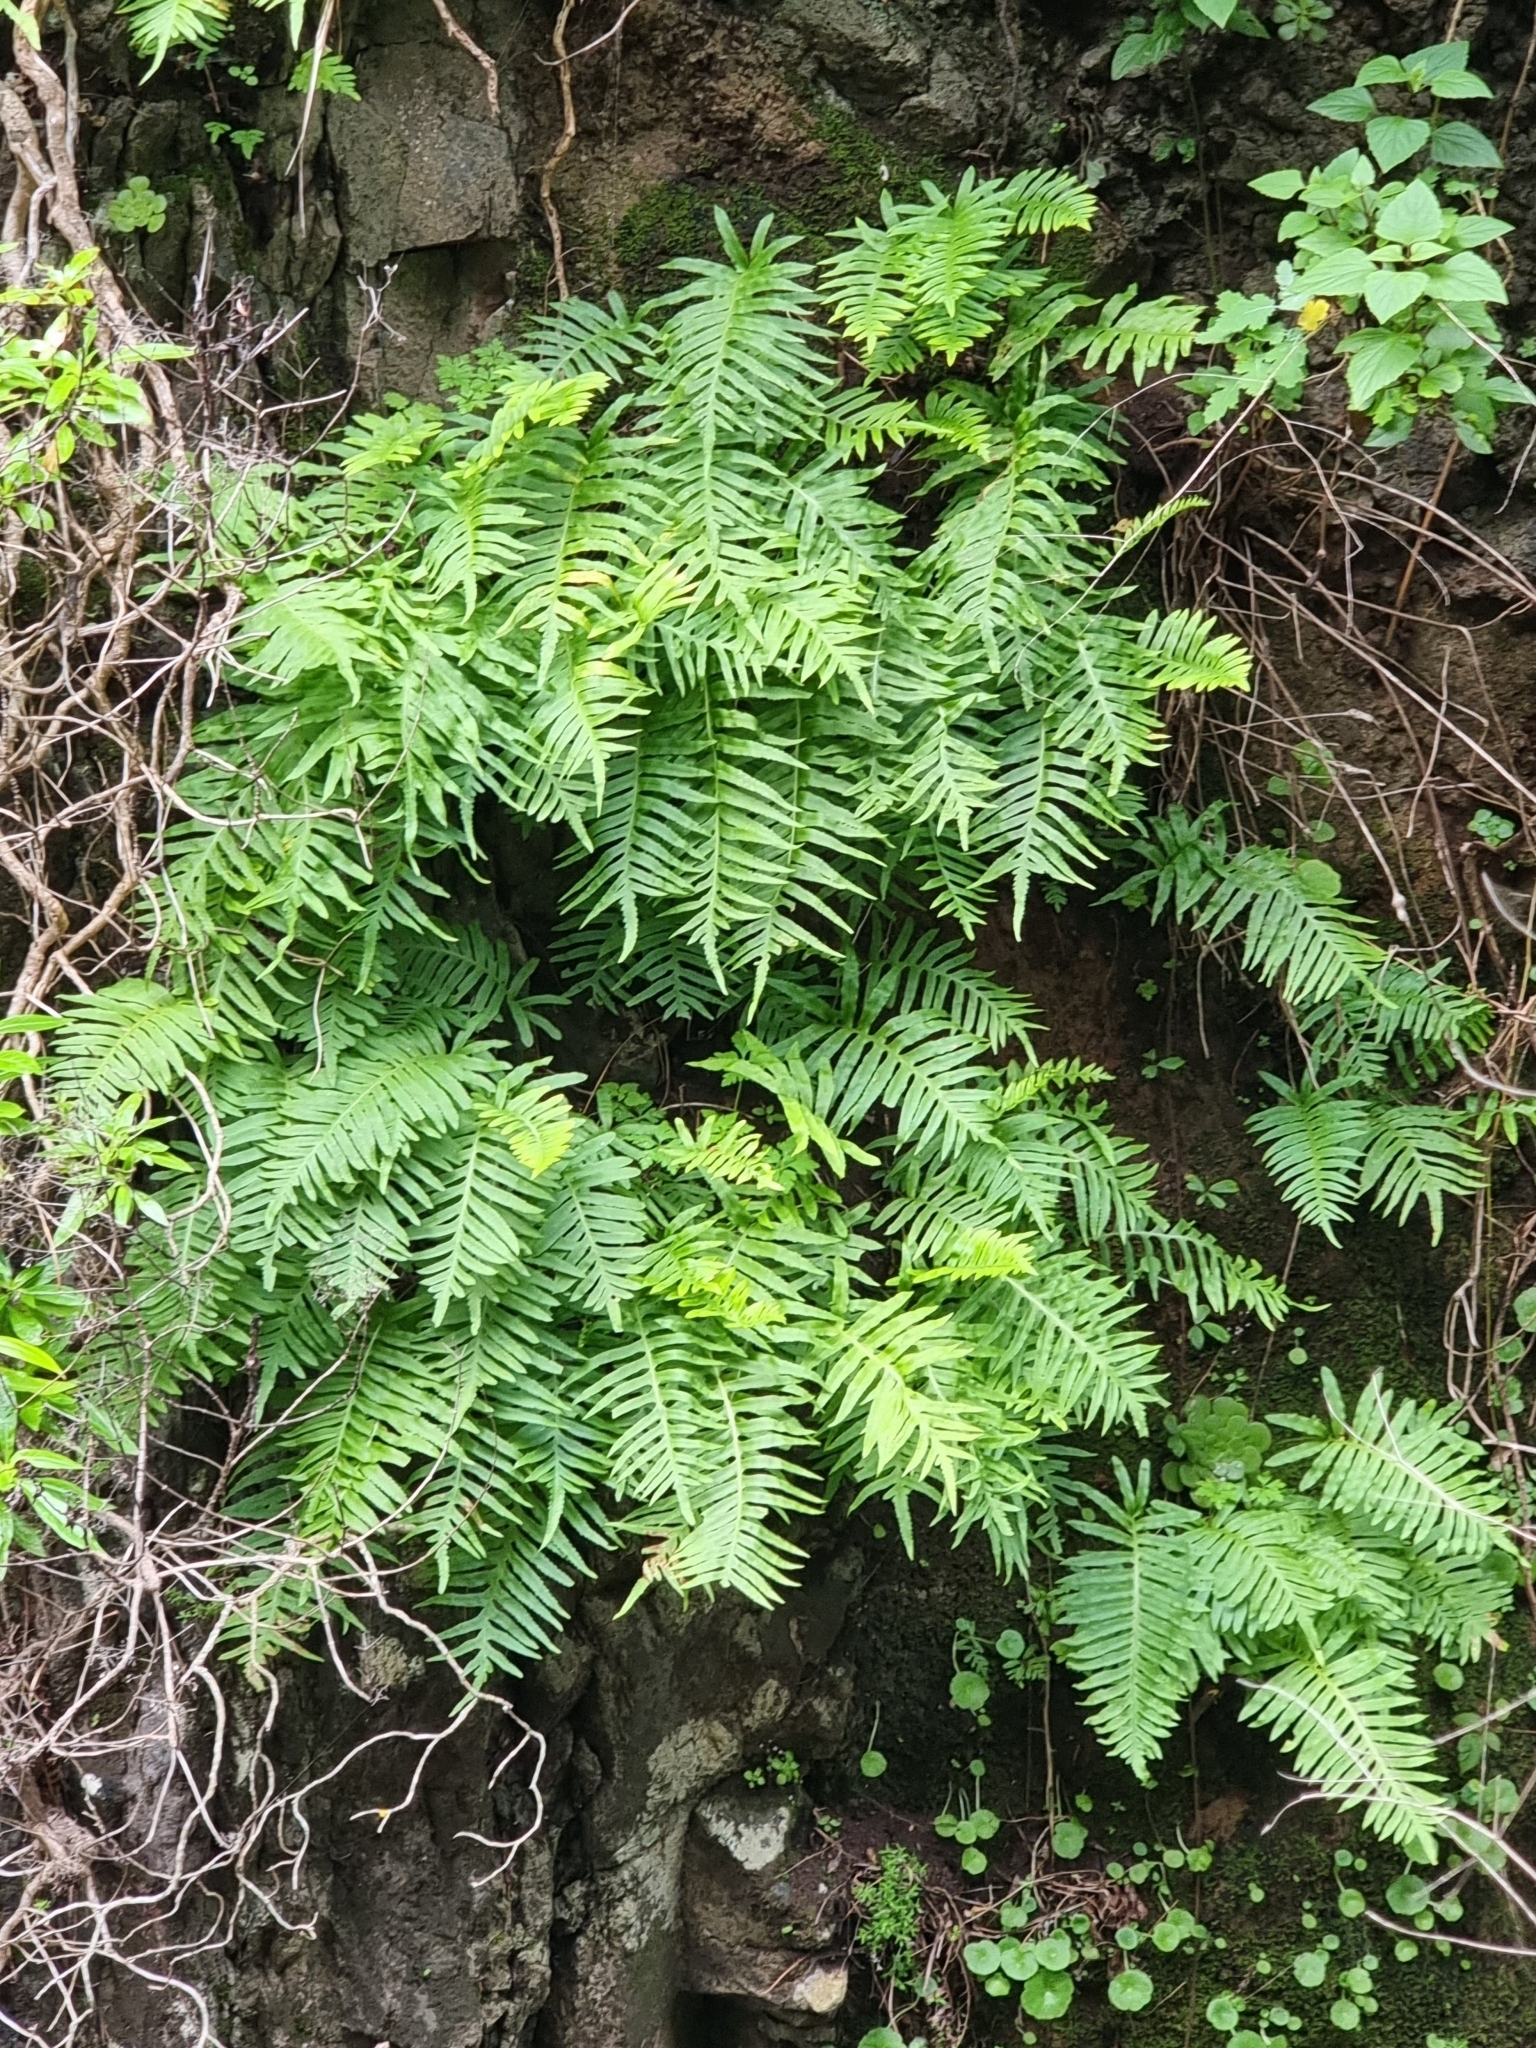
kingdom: Plantae
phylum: Tracheophyta
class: Polypodiopsida
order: Polypodiales
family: Polypodiaceae
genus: Polypodium
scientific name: Polypodium macaronesicum
